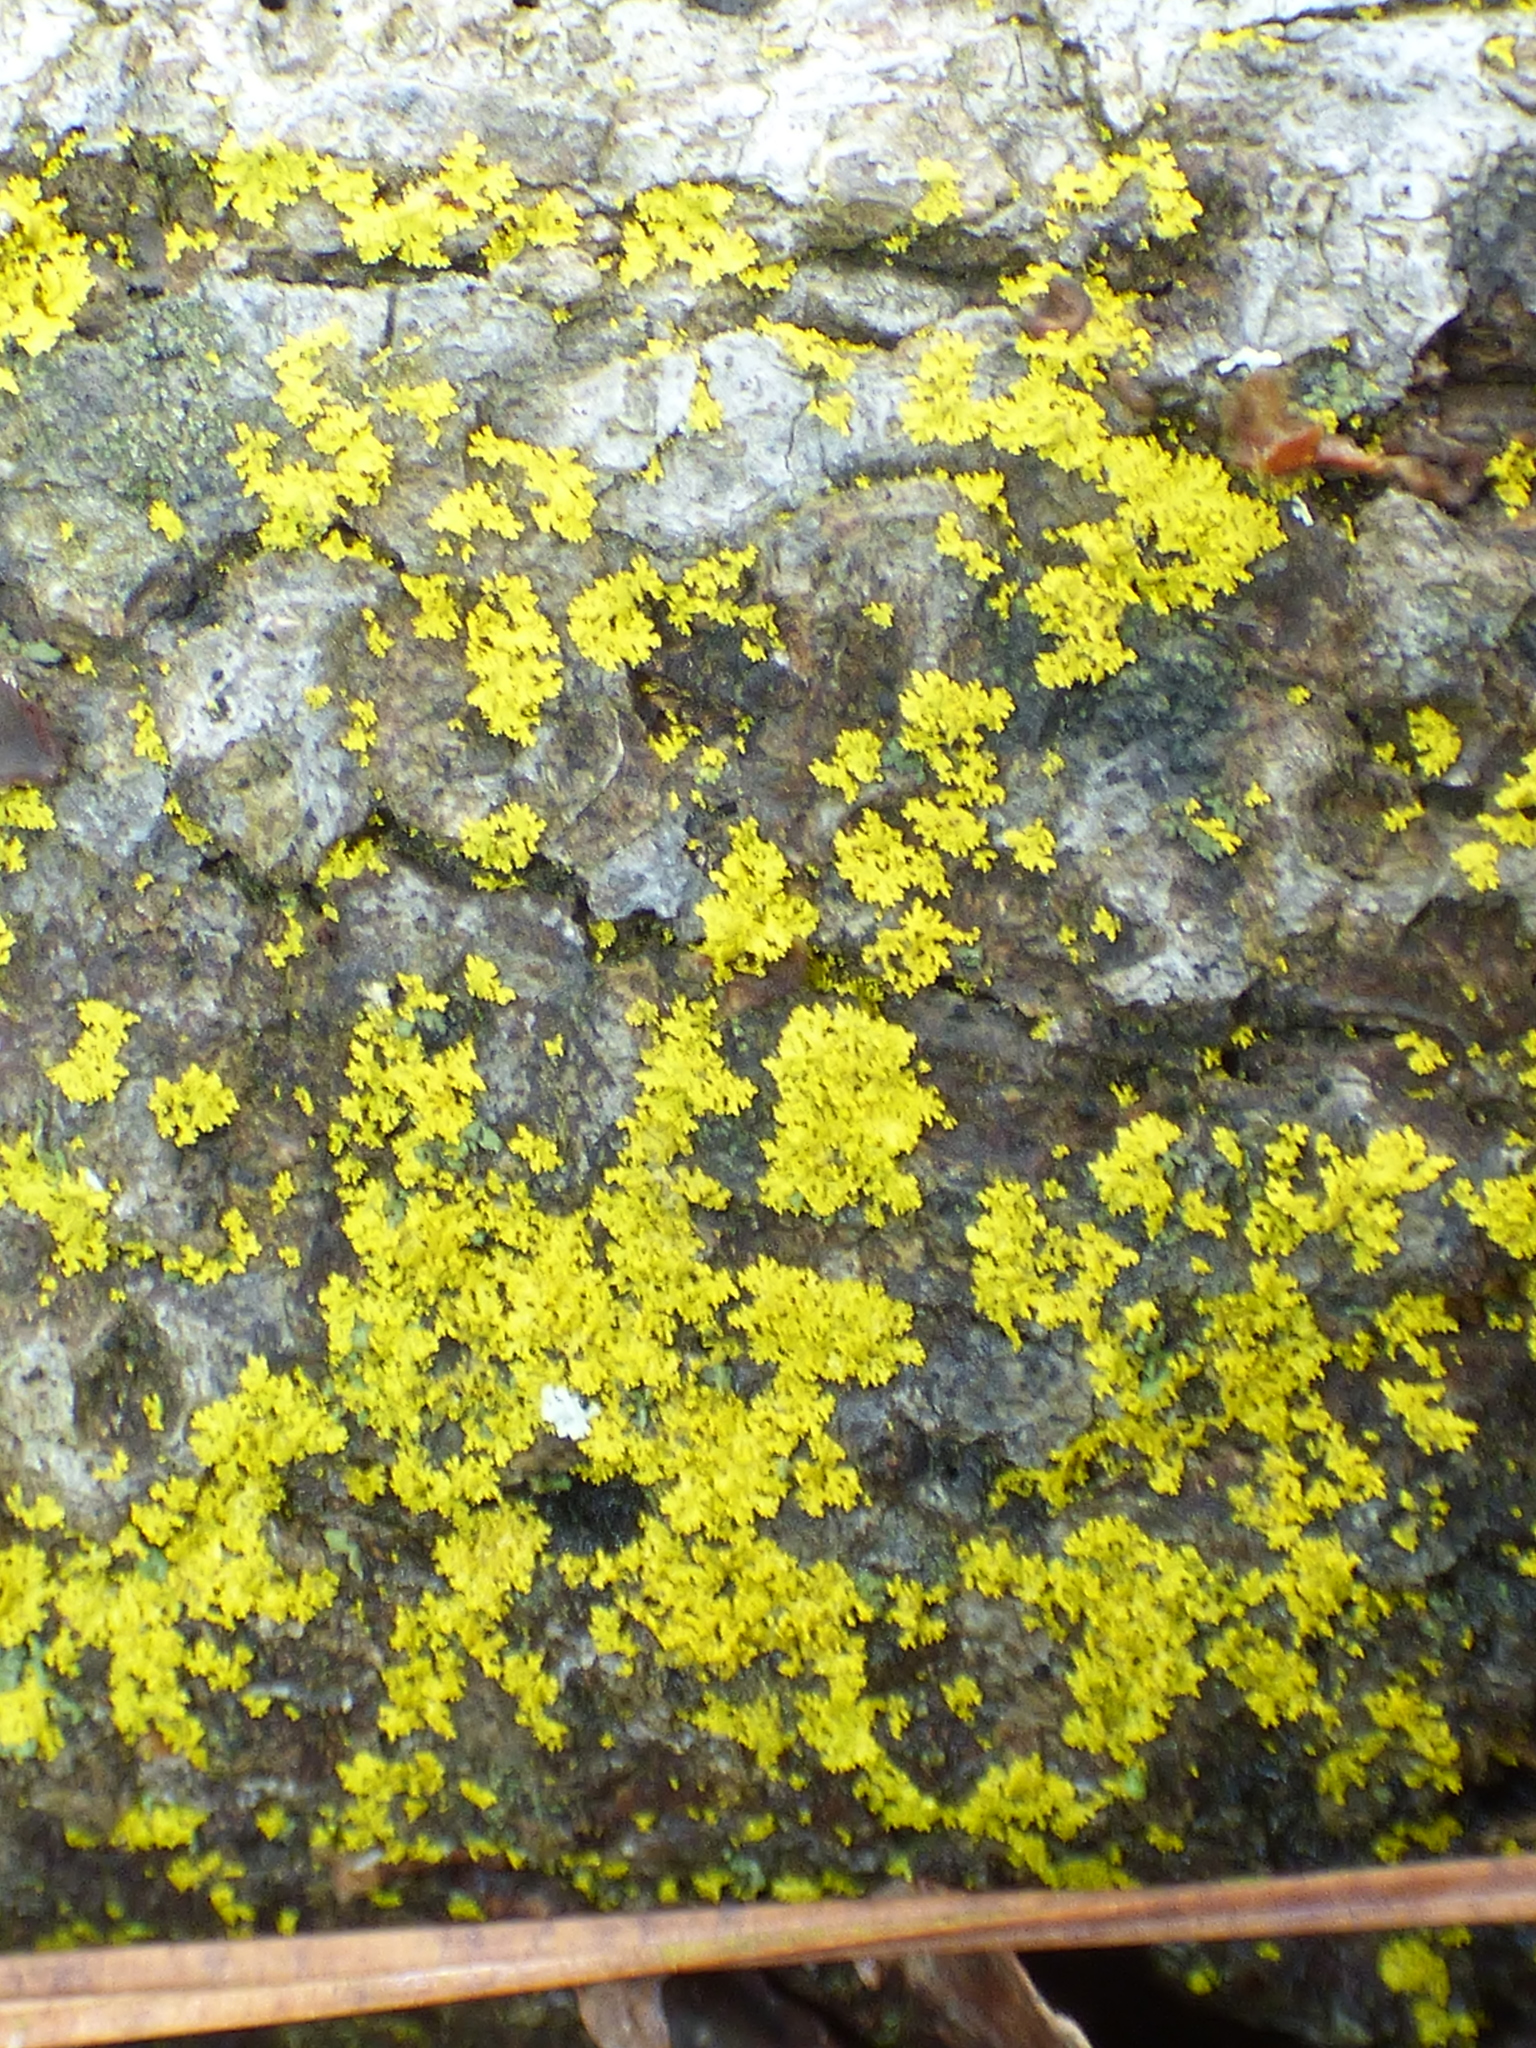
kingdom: Fungi
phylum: Ascomycota
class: Candelariomycetes
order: Candelariales
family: Candelariaceae
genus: Candelaria
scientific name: Candelaria concolor
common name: Candleflame lichen
